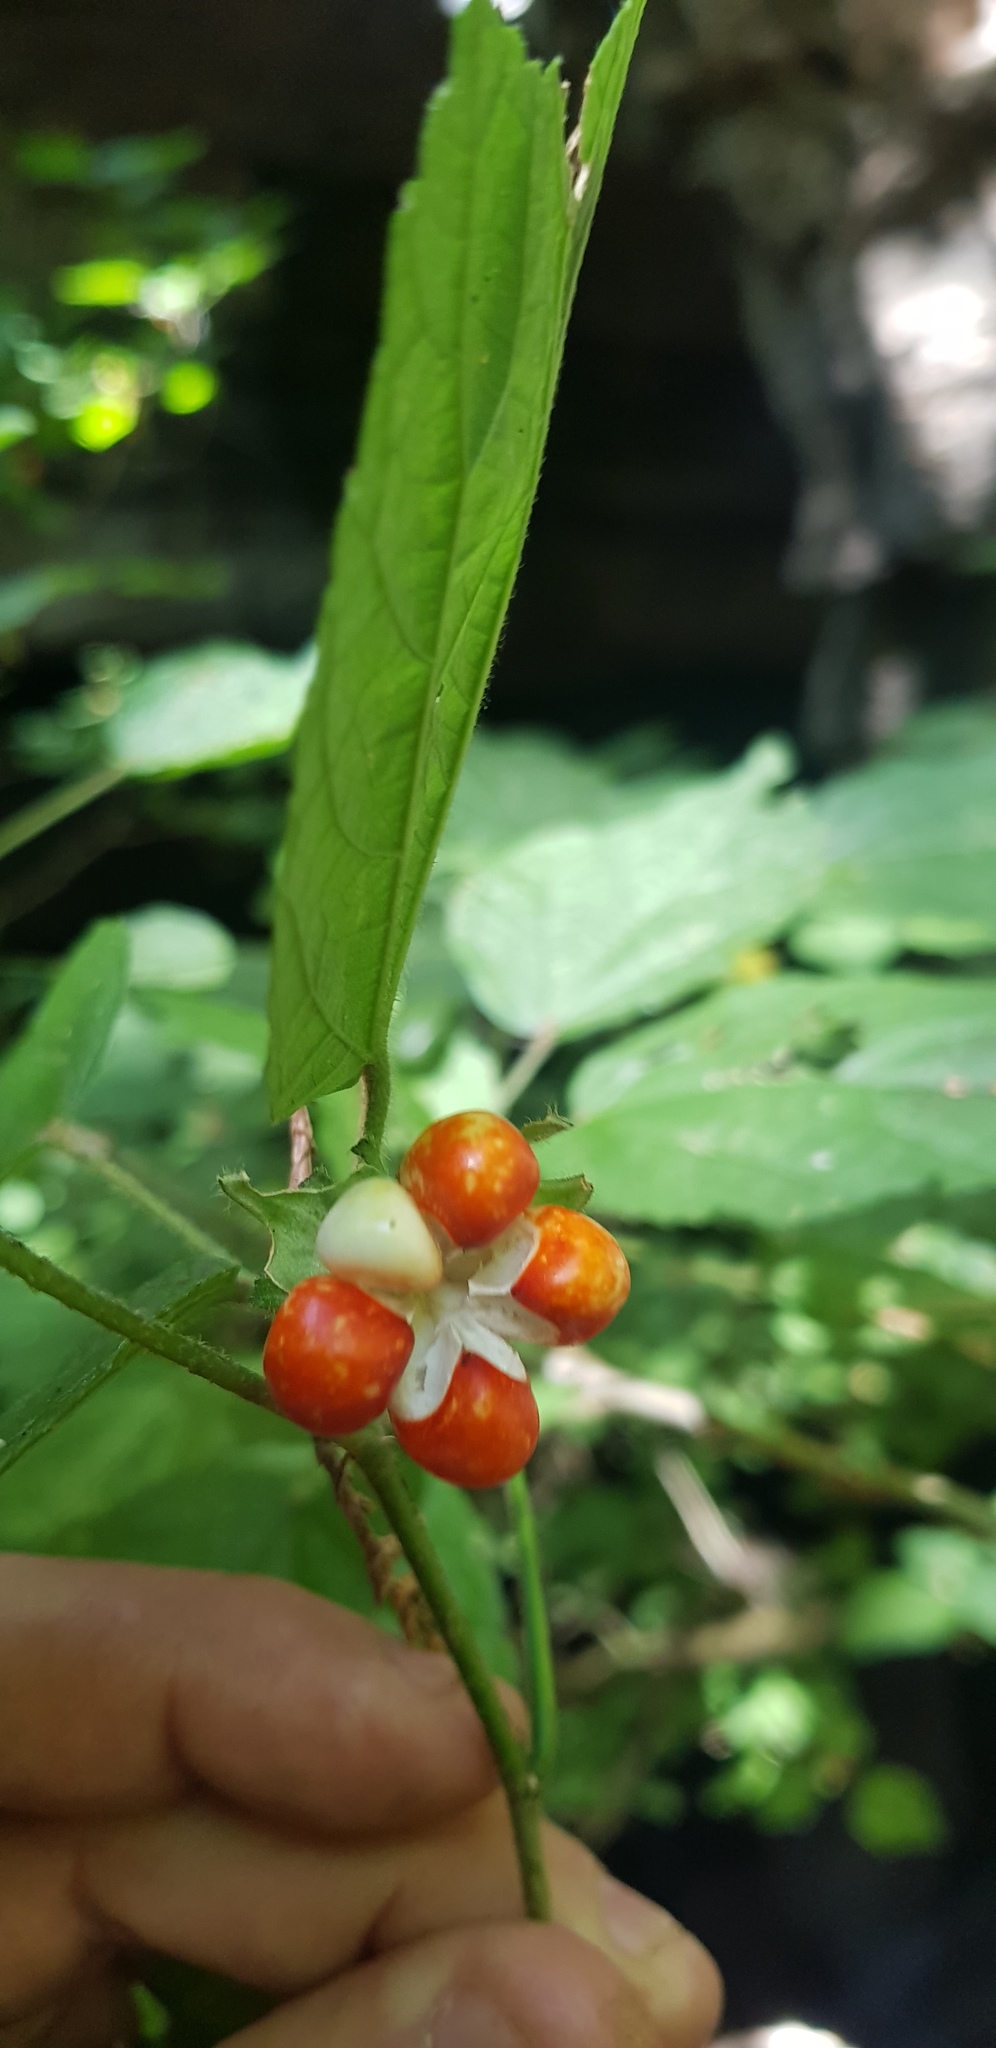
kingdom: Plantae
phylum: Tracheophyta
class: Magnoliopsida
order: Malvales
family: Malvaceae
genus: Malvaviscus
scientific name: Malvaviscus arboreus
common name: Wax mallow
